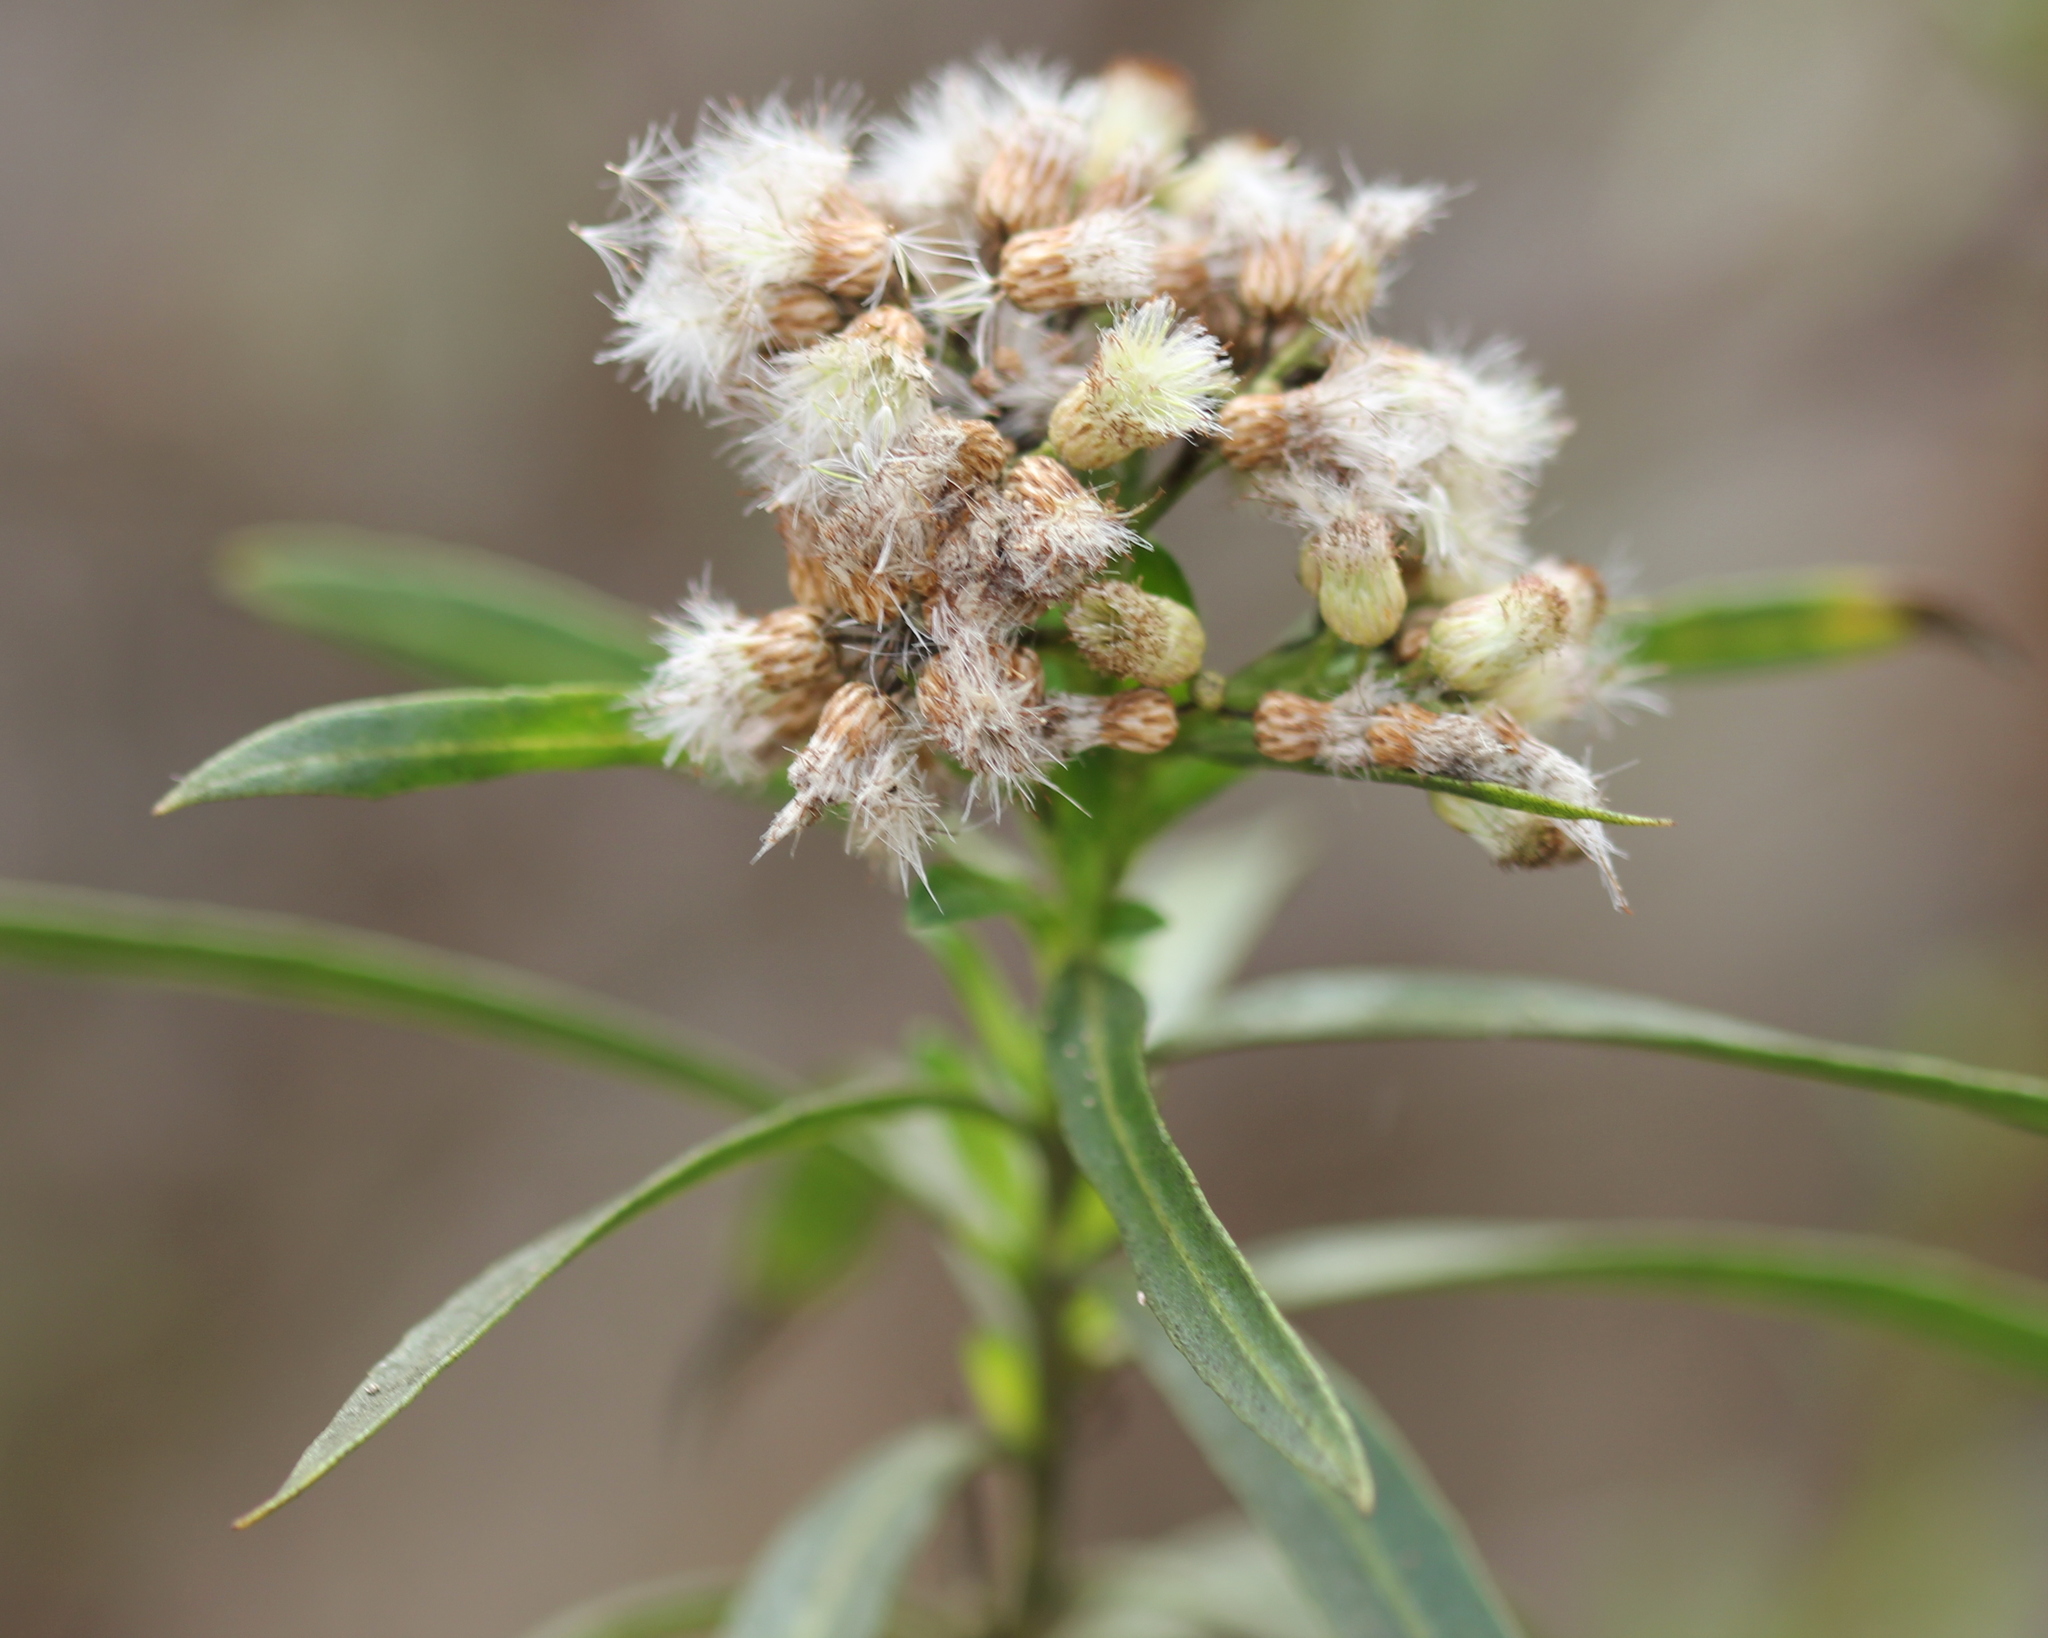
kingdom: Plantae
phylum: Tracheophyta
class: Magnoliopsida
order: Asterales
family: Asteraceae
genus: Baccharis
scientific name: Baccharis salicifolia
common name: Sticky baccharis
